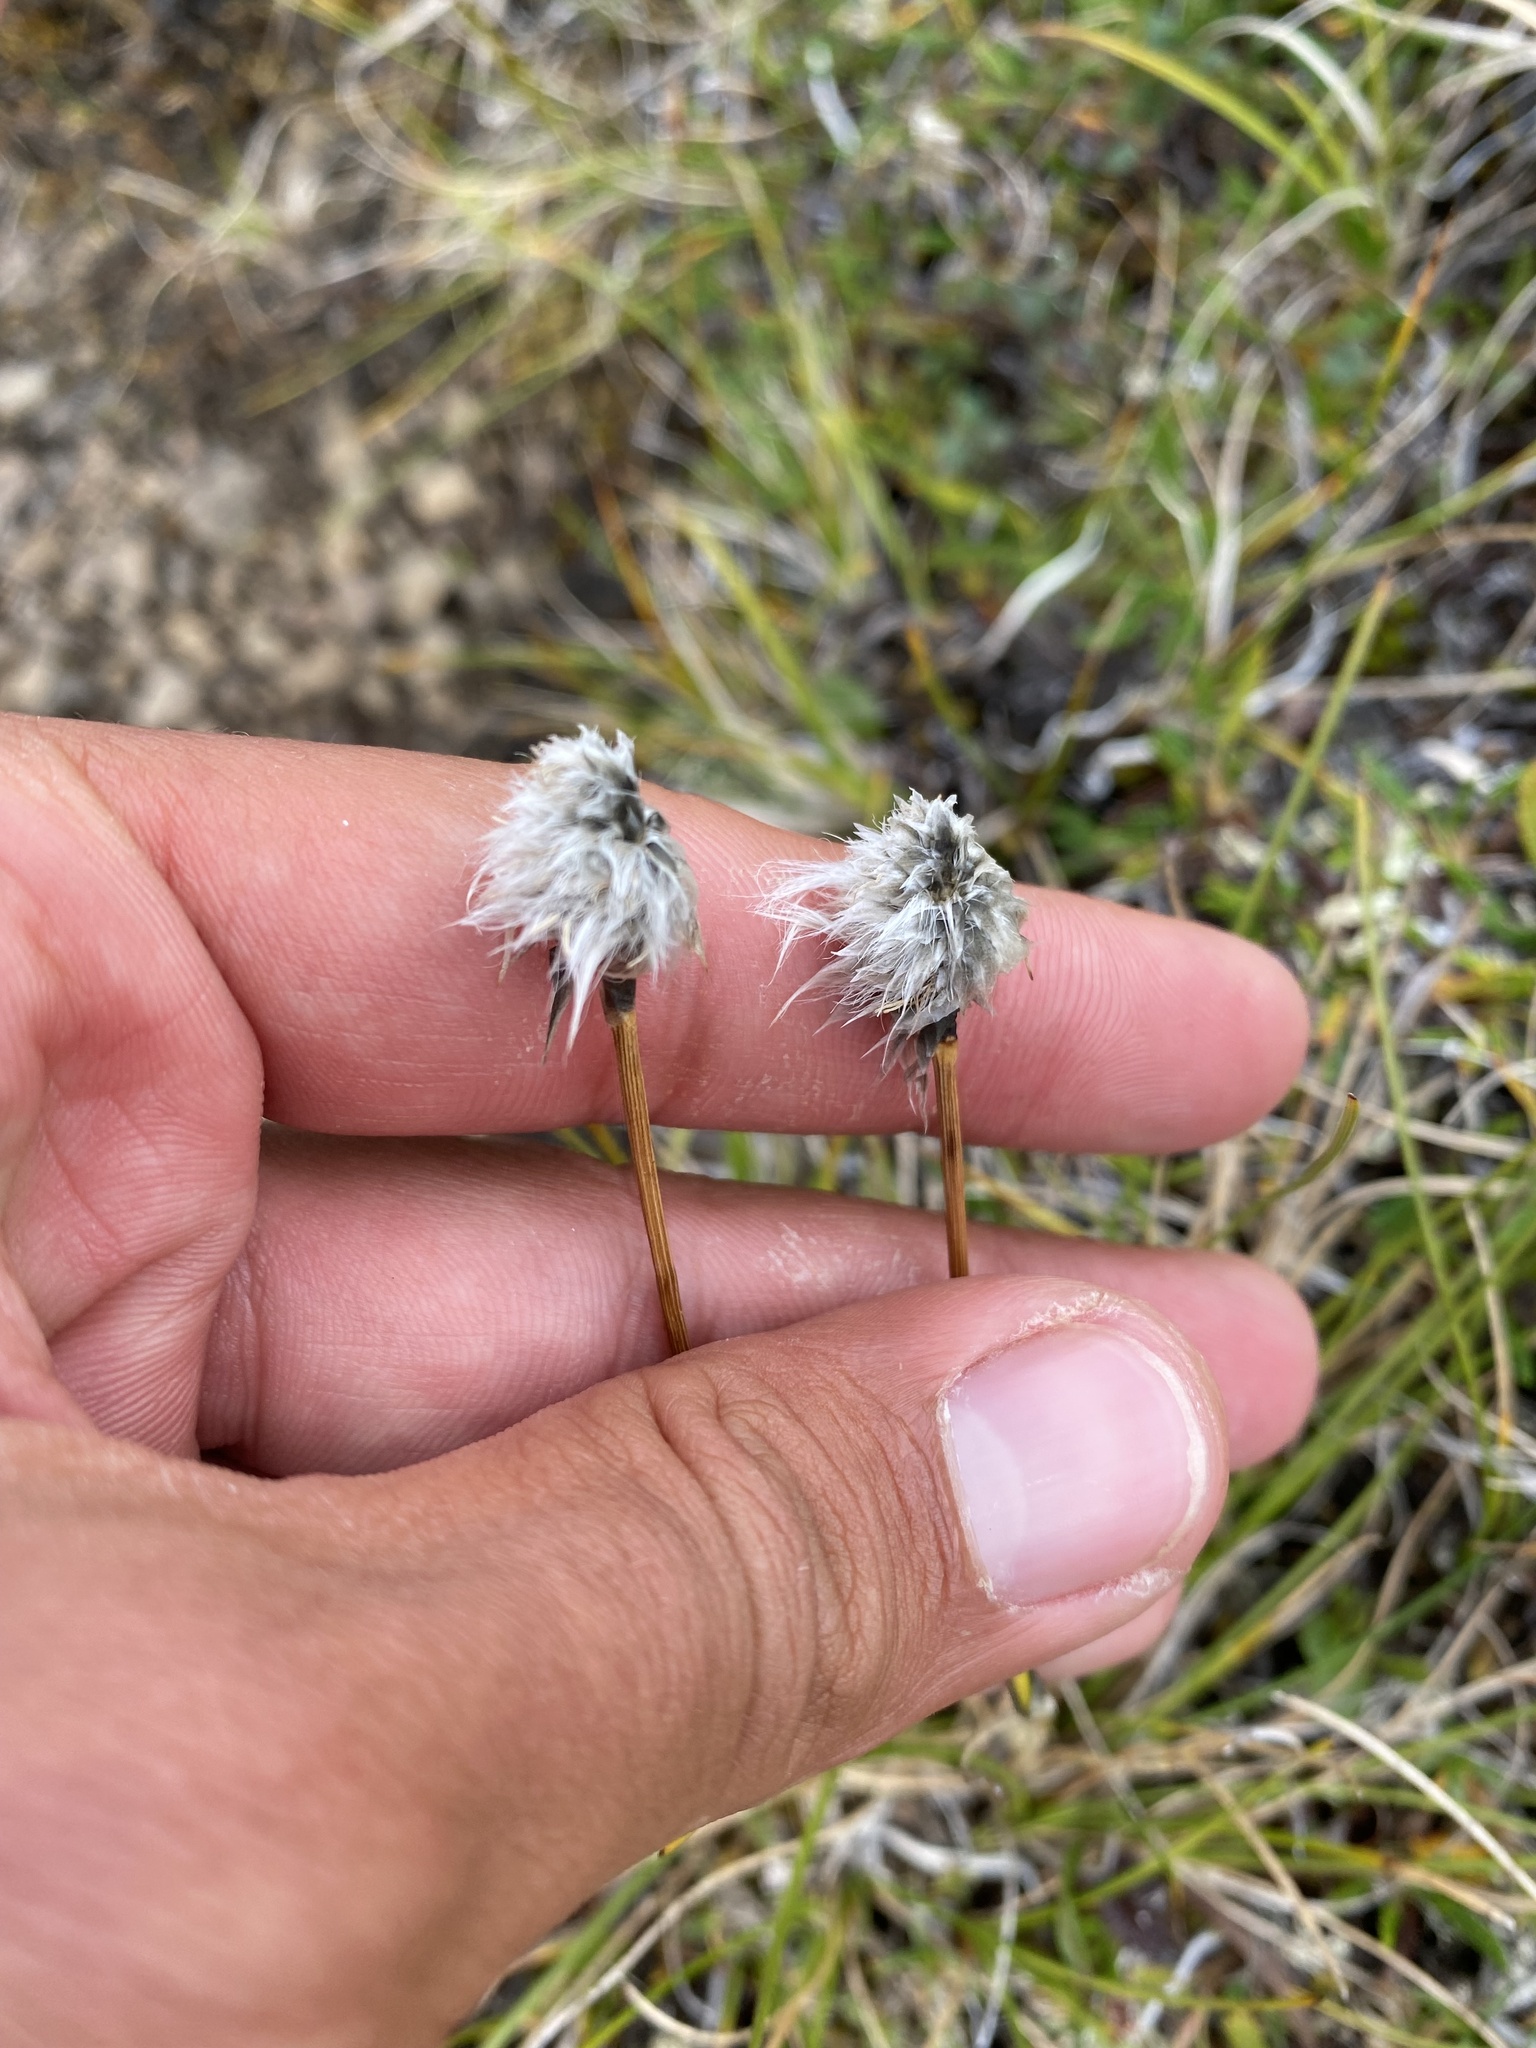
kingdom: Plantae
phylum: Tracheophyta
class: Liliopsida
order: Poales
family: Cyperaceae
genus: Eriophorum
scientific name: Eriophorum vaginatum
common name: Hare's-tail cottongrass
